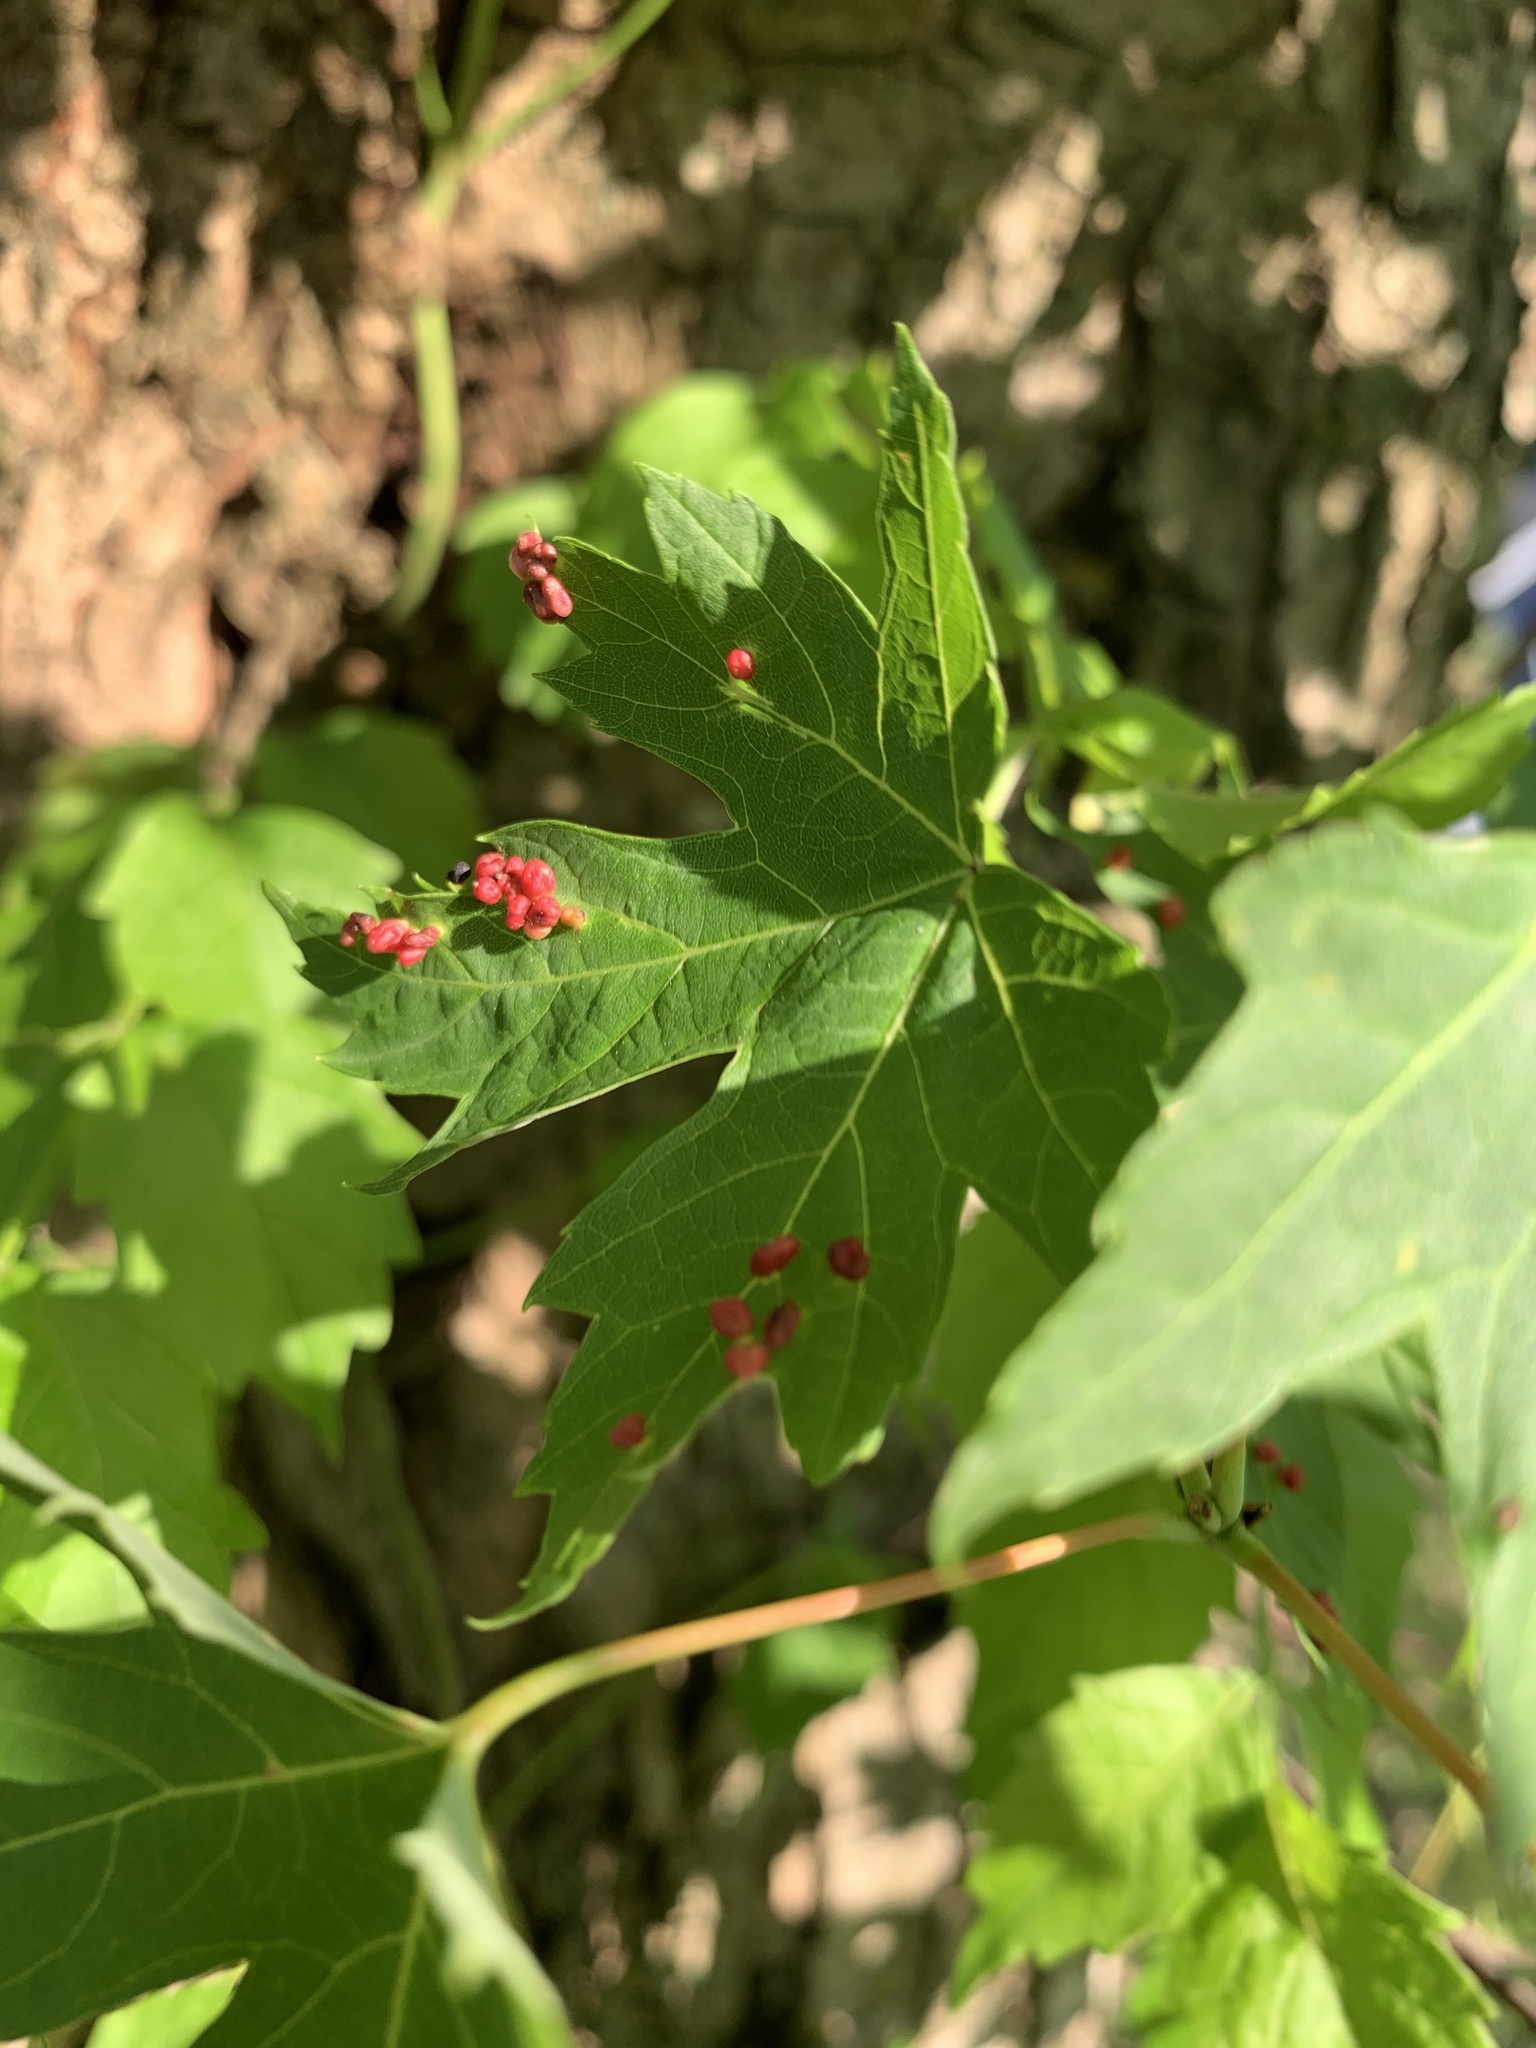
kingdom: Animalia
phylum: Arthropoda
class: Arachnida
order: Trombidiformes
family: Eriophyidae
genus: Vasates
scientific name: Vasates quadripedes
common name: Maple bladder gall mite
